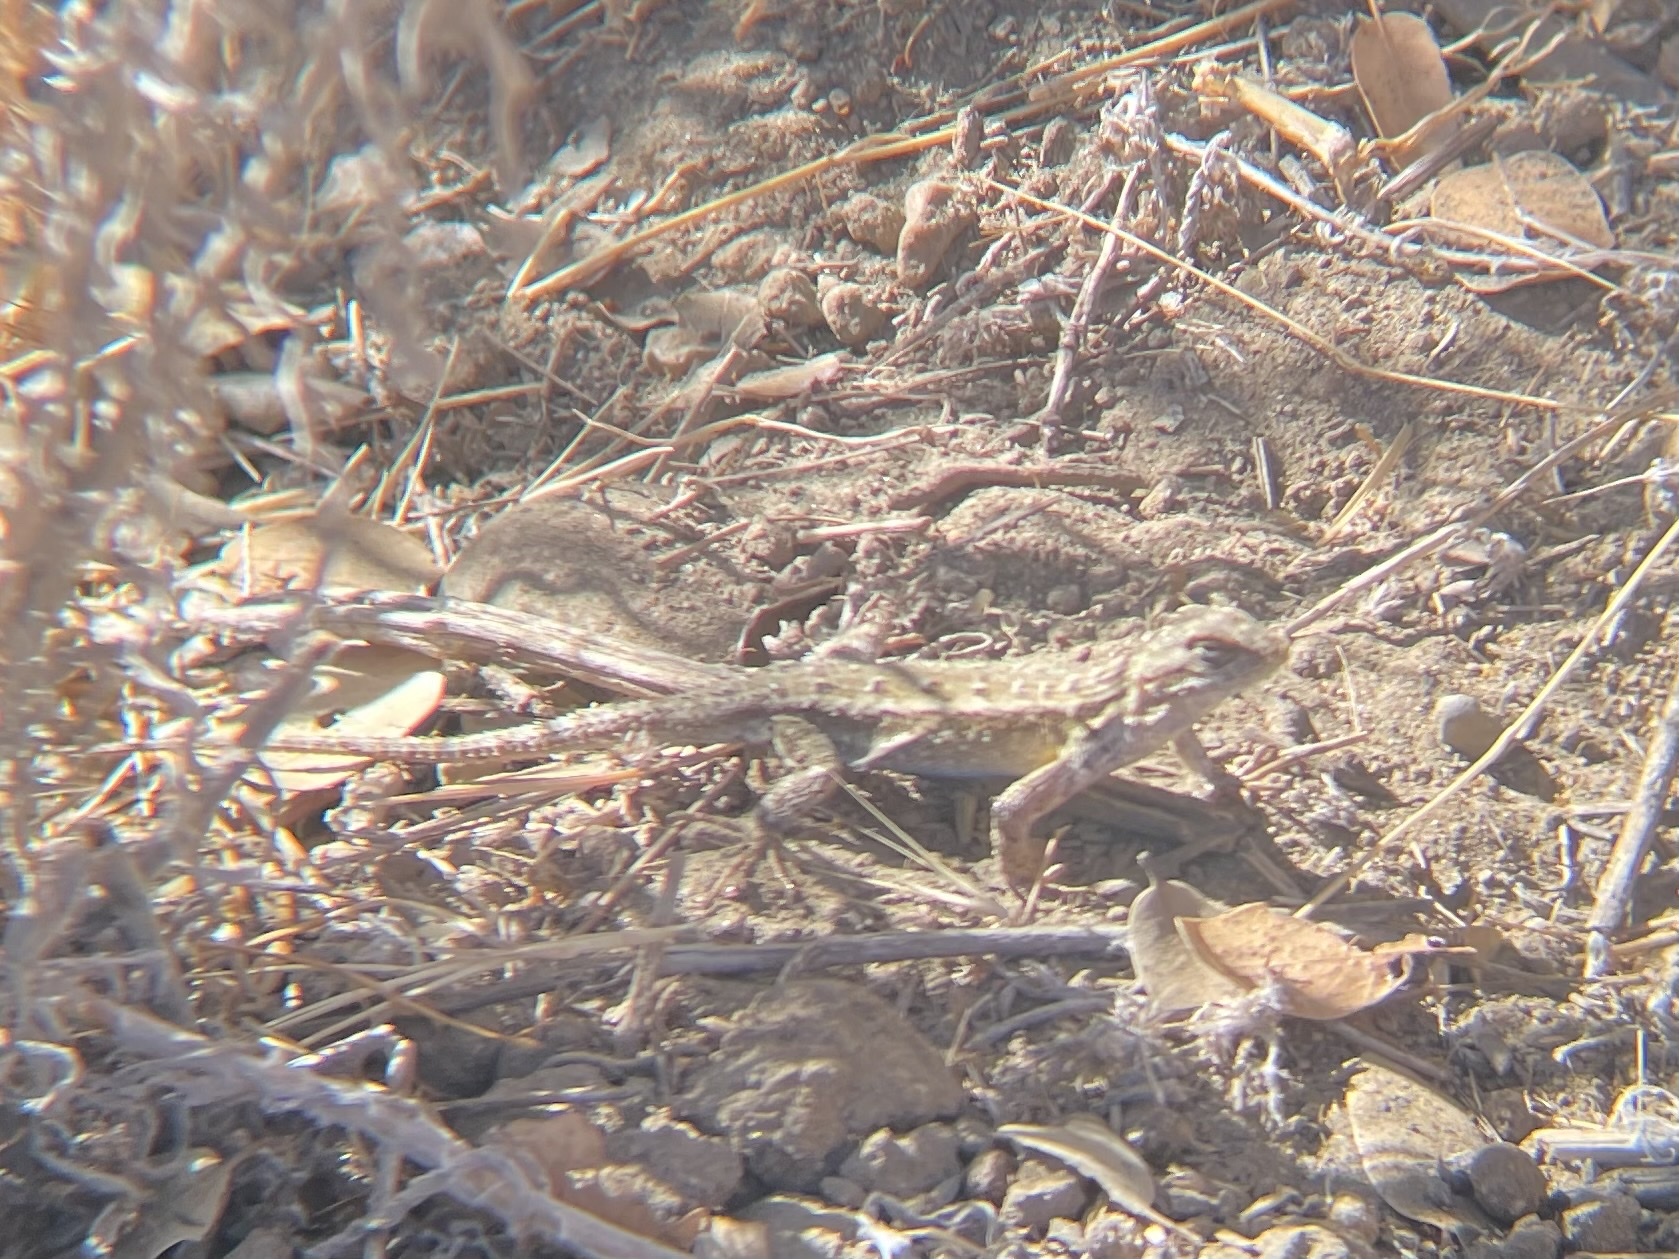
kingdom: Animalia
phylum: Chordata
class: Squamata
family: Phrynosomatidae
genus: Sceloporus
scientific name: Sceloporus occidentalis
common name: Western fence lizard
